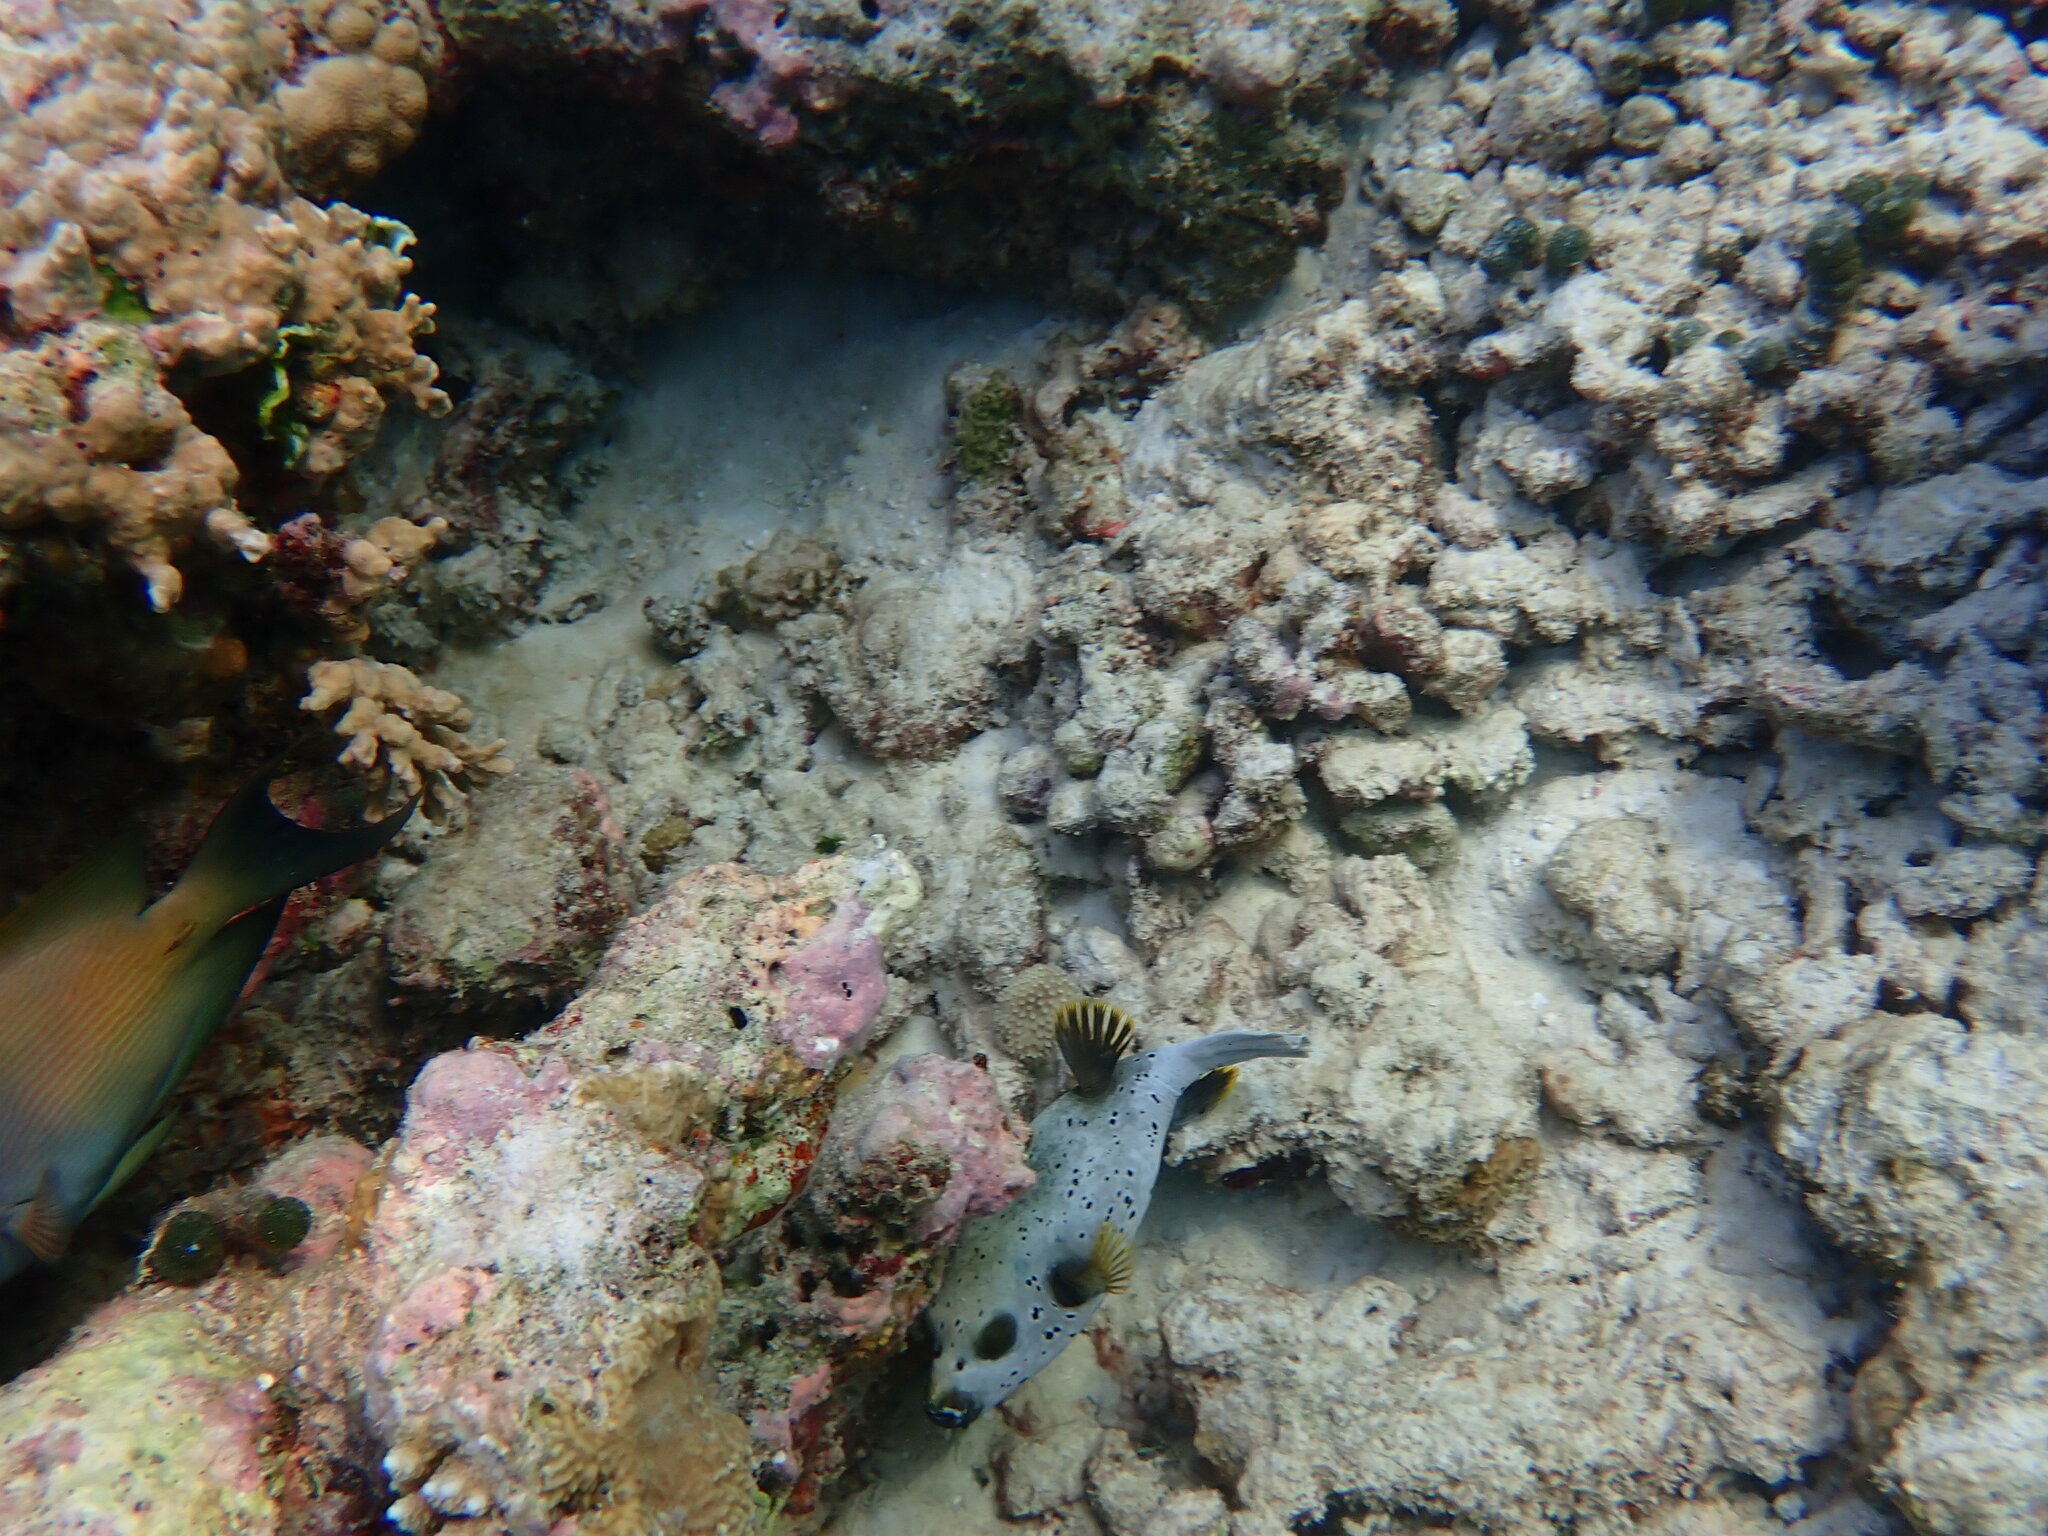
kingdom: Animalia
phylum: Chordata
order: Tetraodontiformes
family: Tetraodontidae
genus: Arothron
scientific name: Arothron nigropunctatus
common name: Black spotted blow fish
